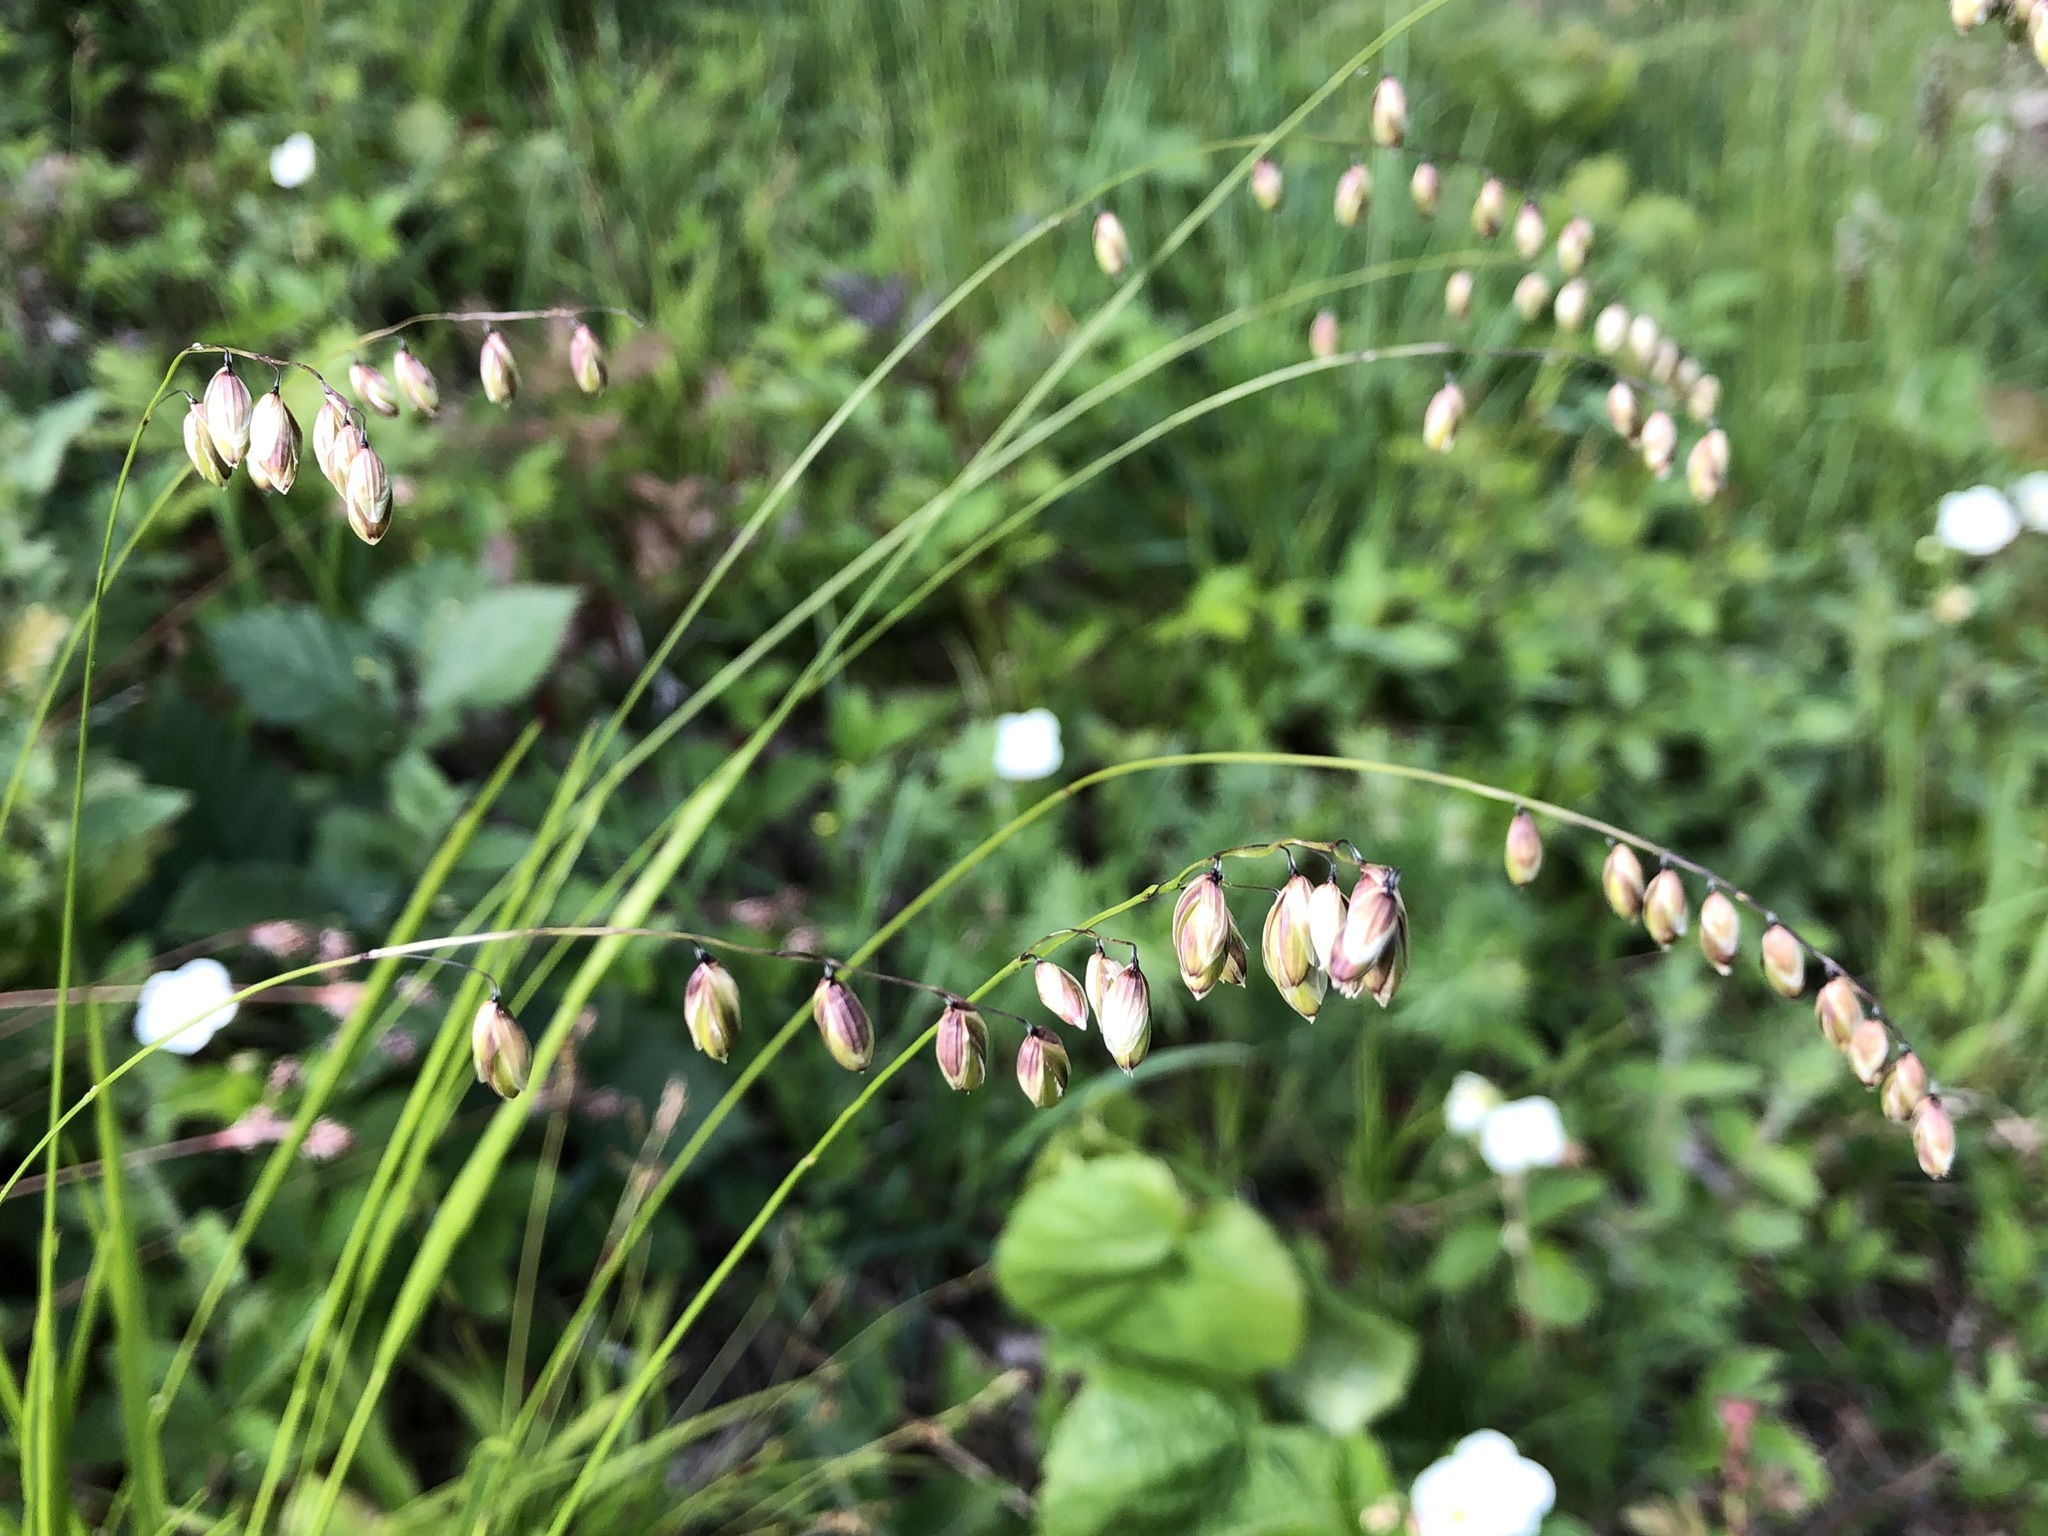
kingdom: Plantae
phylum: Tracheophyta
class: Liliopsida
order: Poales
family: Poaceae
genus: Melica
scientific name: Melica nutans
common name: Mountain melick
